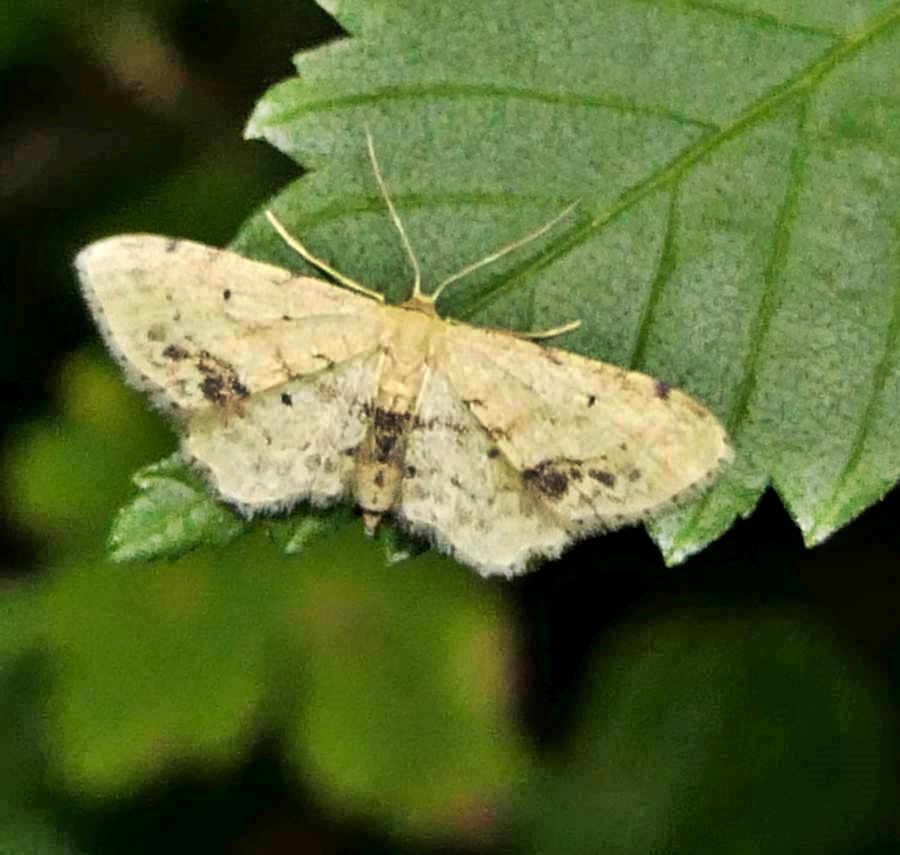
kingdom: Animalia
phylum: Arthropoda
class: Insecta
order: Lepidoptera
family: Geometridae
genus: Idaea
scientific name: Idaea dimidiata
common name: Single-dotted wave
